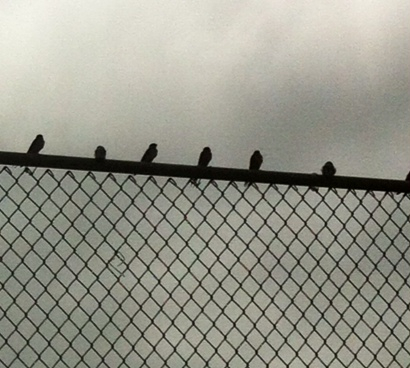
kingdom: Animalia
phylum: Chordata
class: Aves
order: Passeriformes
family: Hirundinidae
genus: Hirundo
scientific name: Hirundo rustica
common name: Barn swallow
